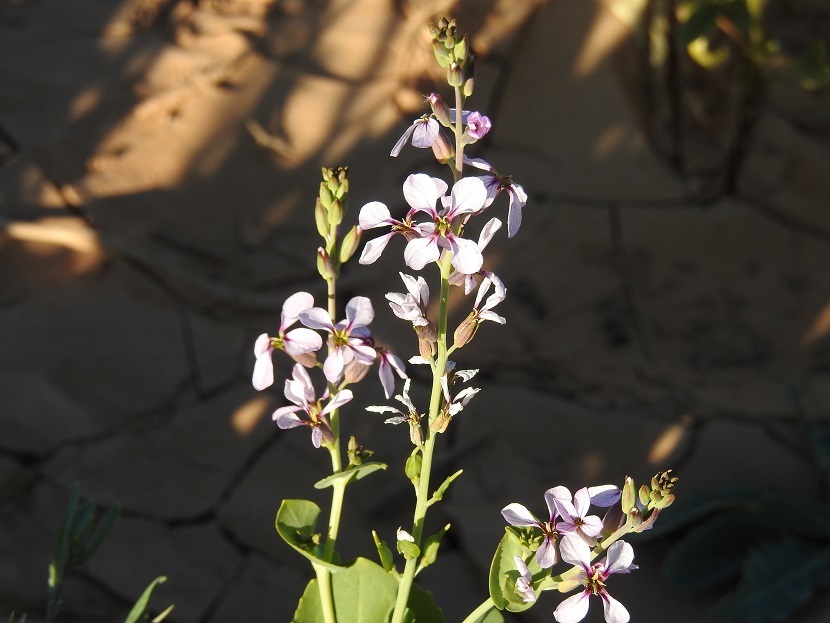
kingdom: Plantae
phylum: Tracheophyta
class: Magnoliopsida
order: Brassicales
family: Brassicaceae
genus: Schouwia
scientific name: Schouwia purpurea
